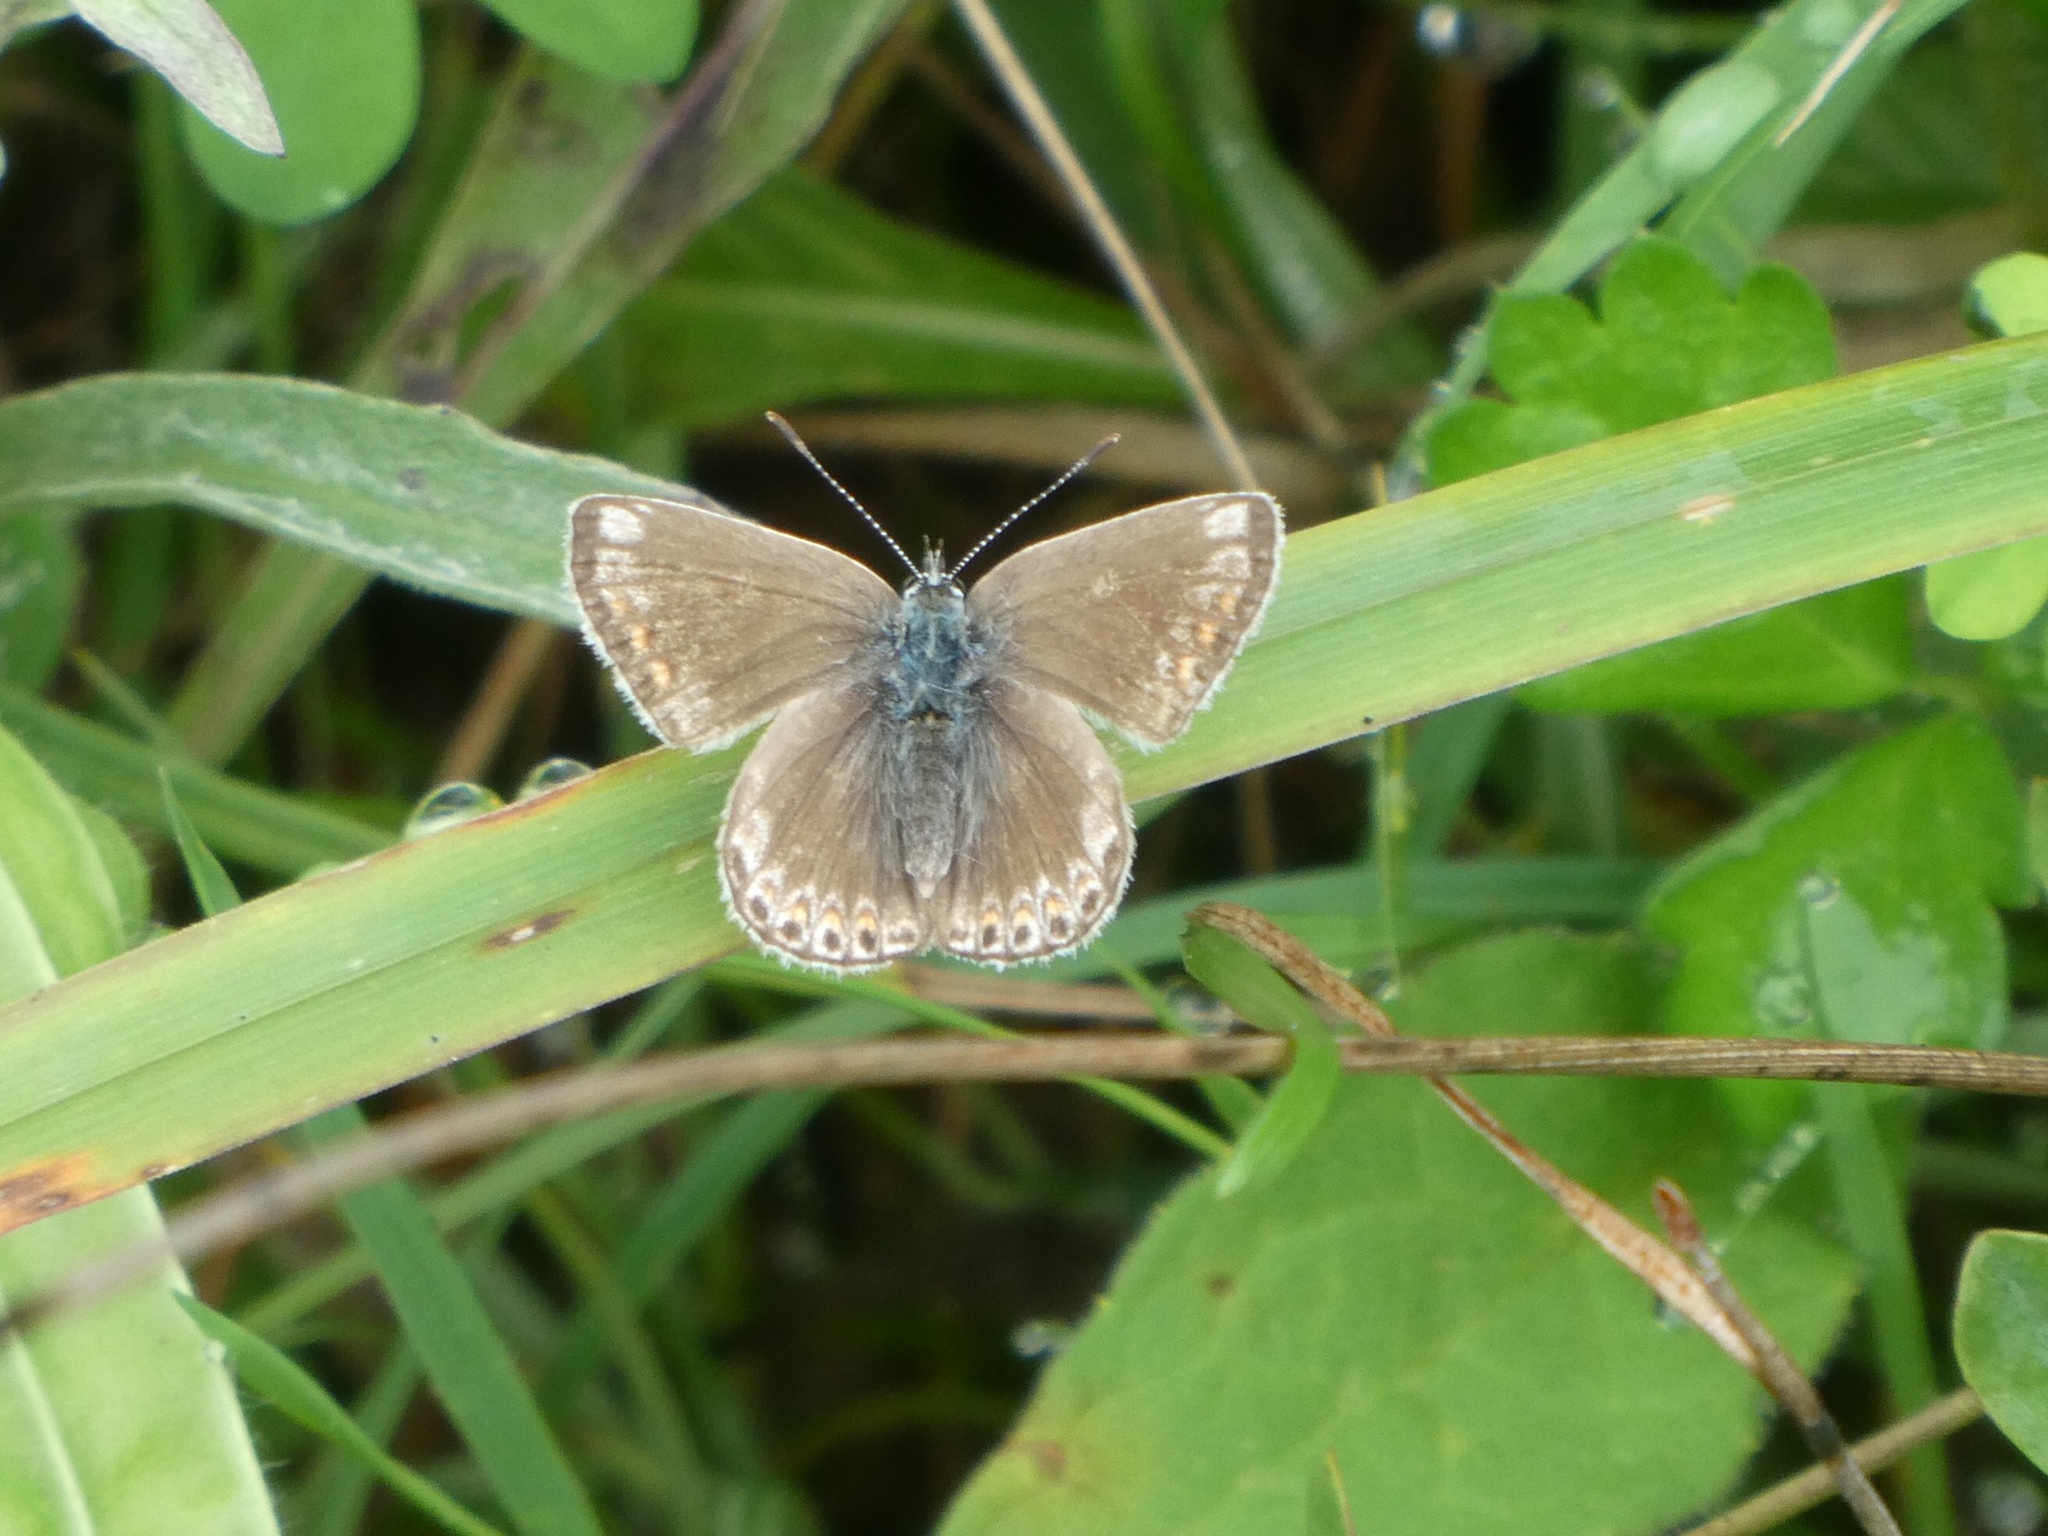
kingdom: Animalia
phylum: Arthropoda
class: Insecta
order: Lepidoptera
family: Lycaenidae
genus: Polyommatus
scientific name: Polyommatus icarus
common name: Common blue
